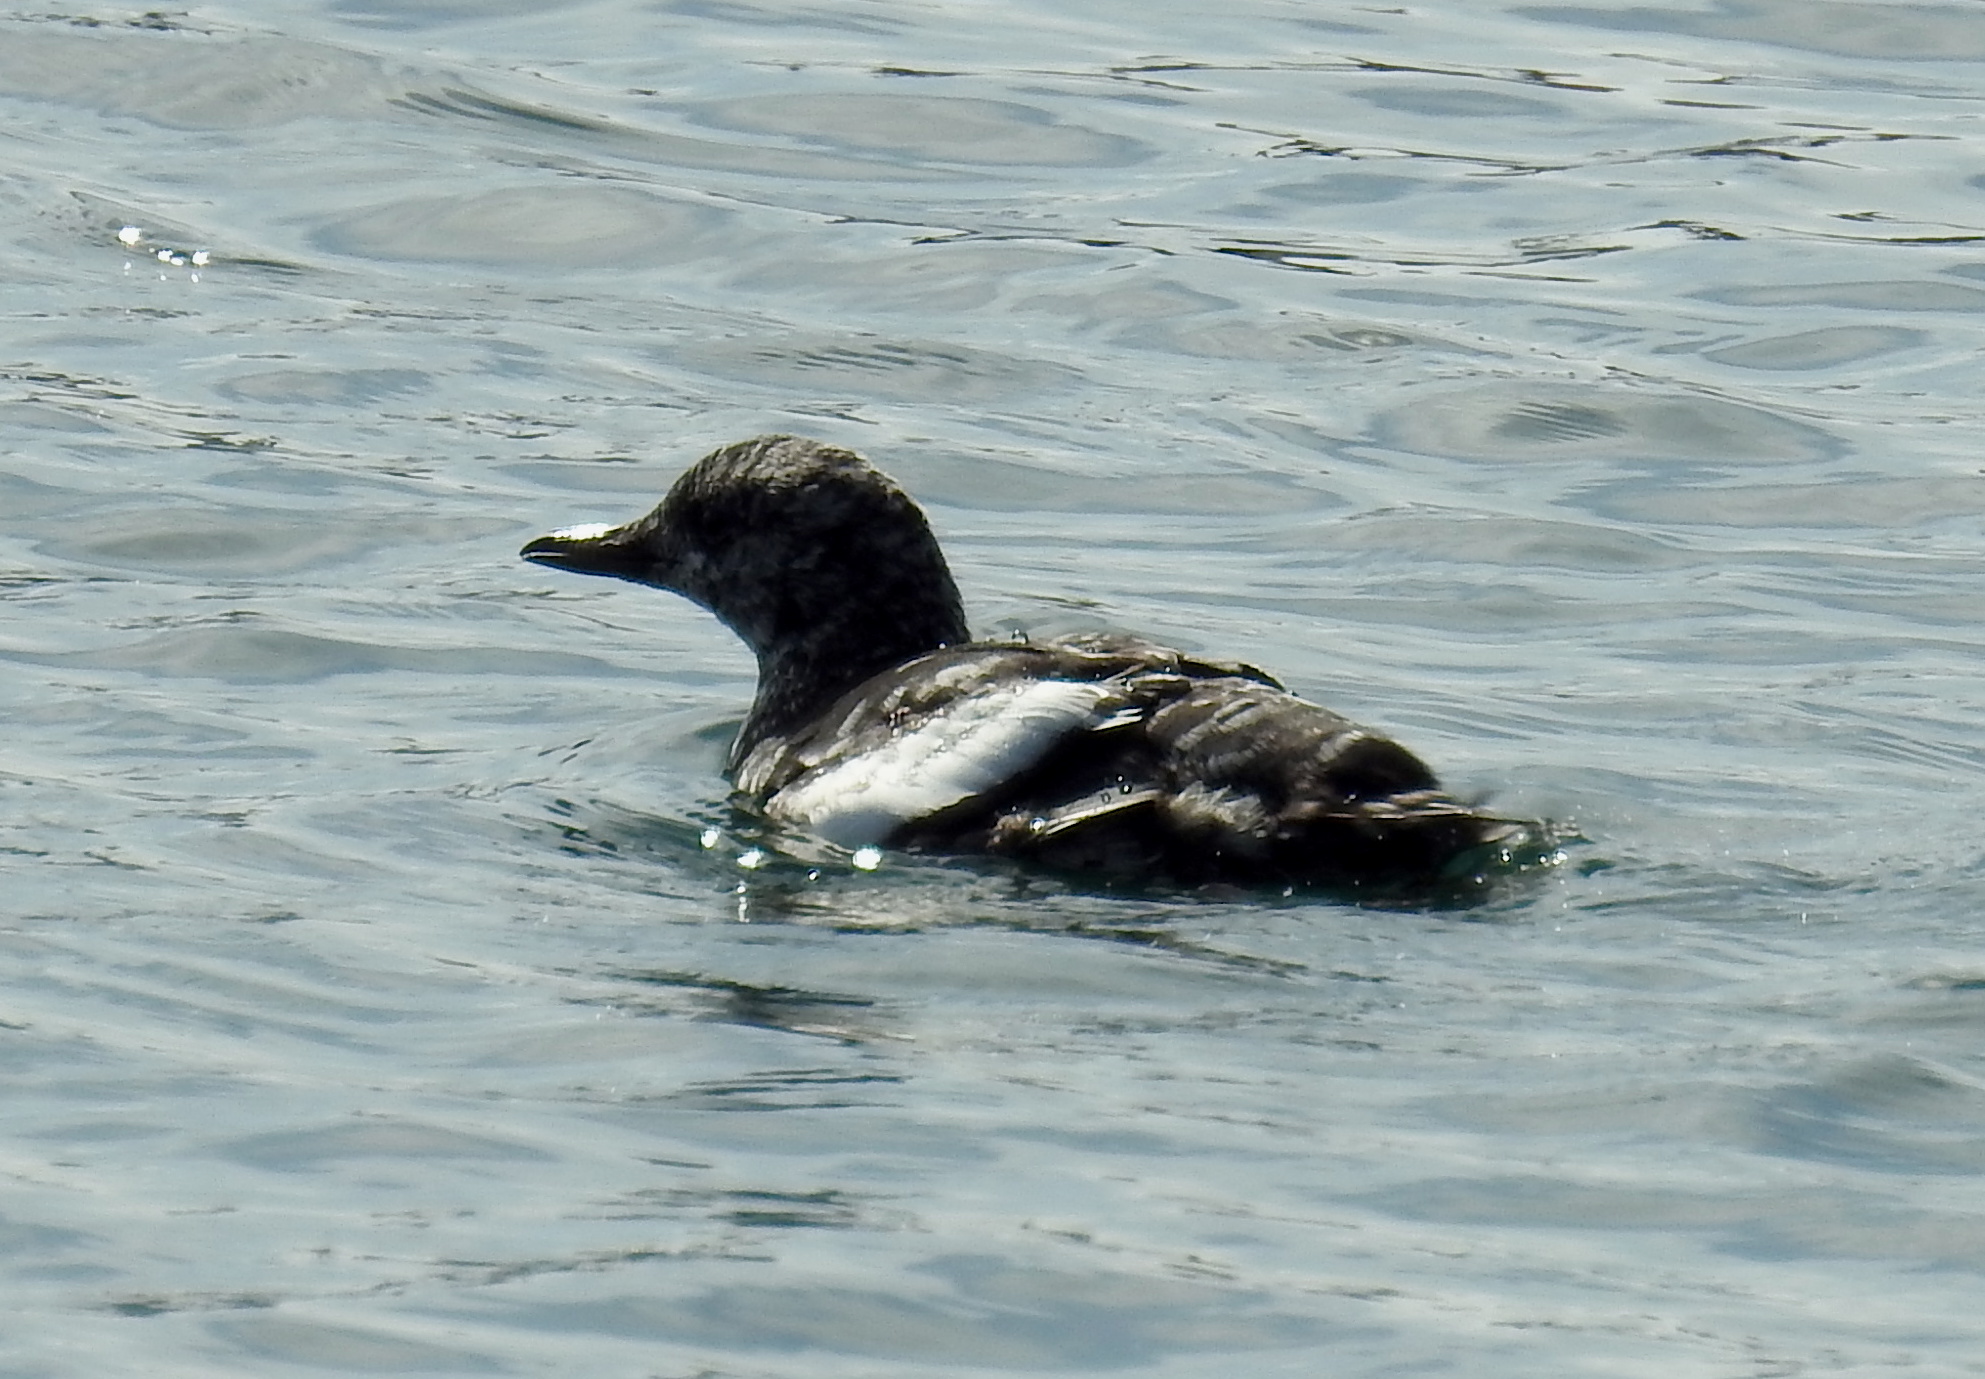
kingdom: Animalia
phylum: Chordata
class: Aves
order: Charadriiformes
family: Alcidae
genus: Cepphus
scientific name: Cepphus grylle
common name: Black guillemot
